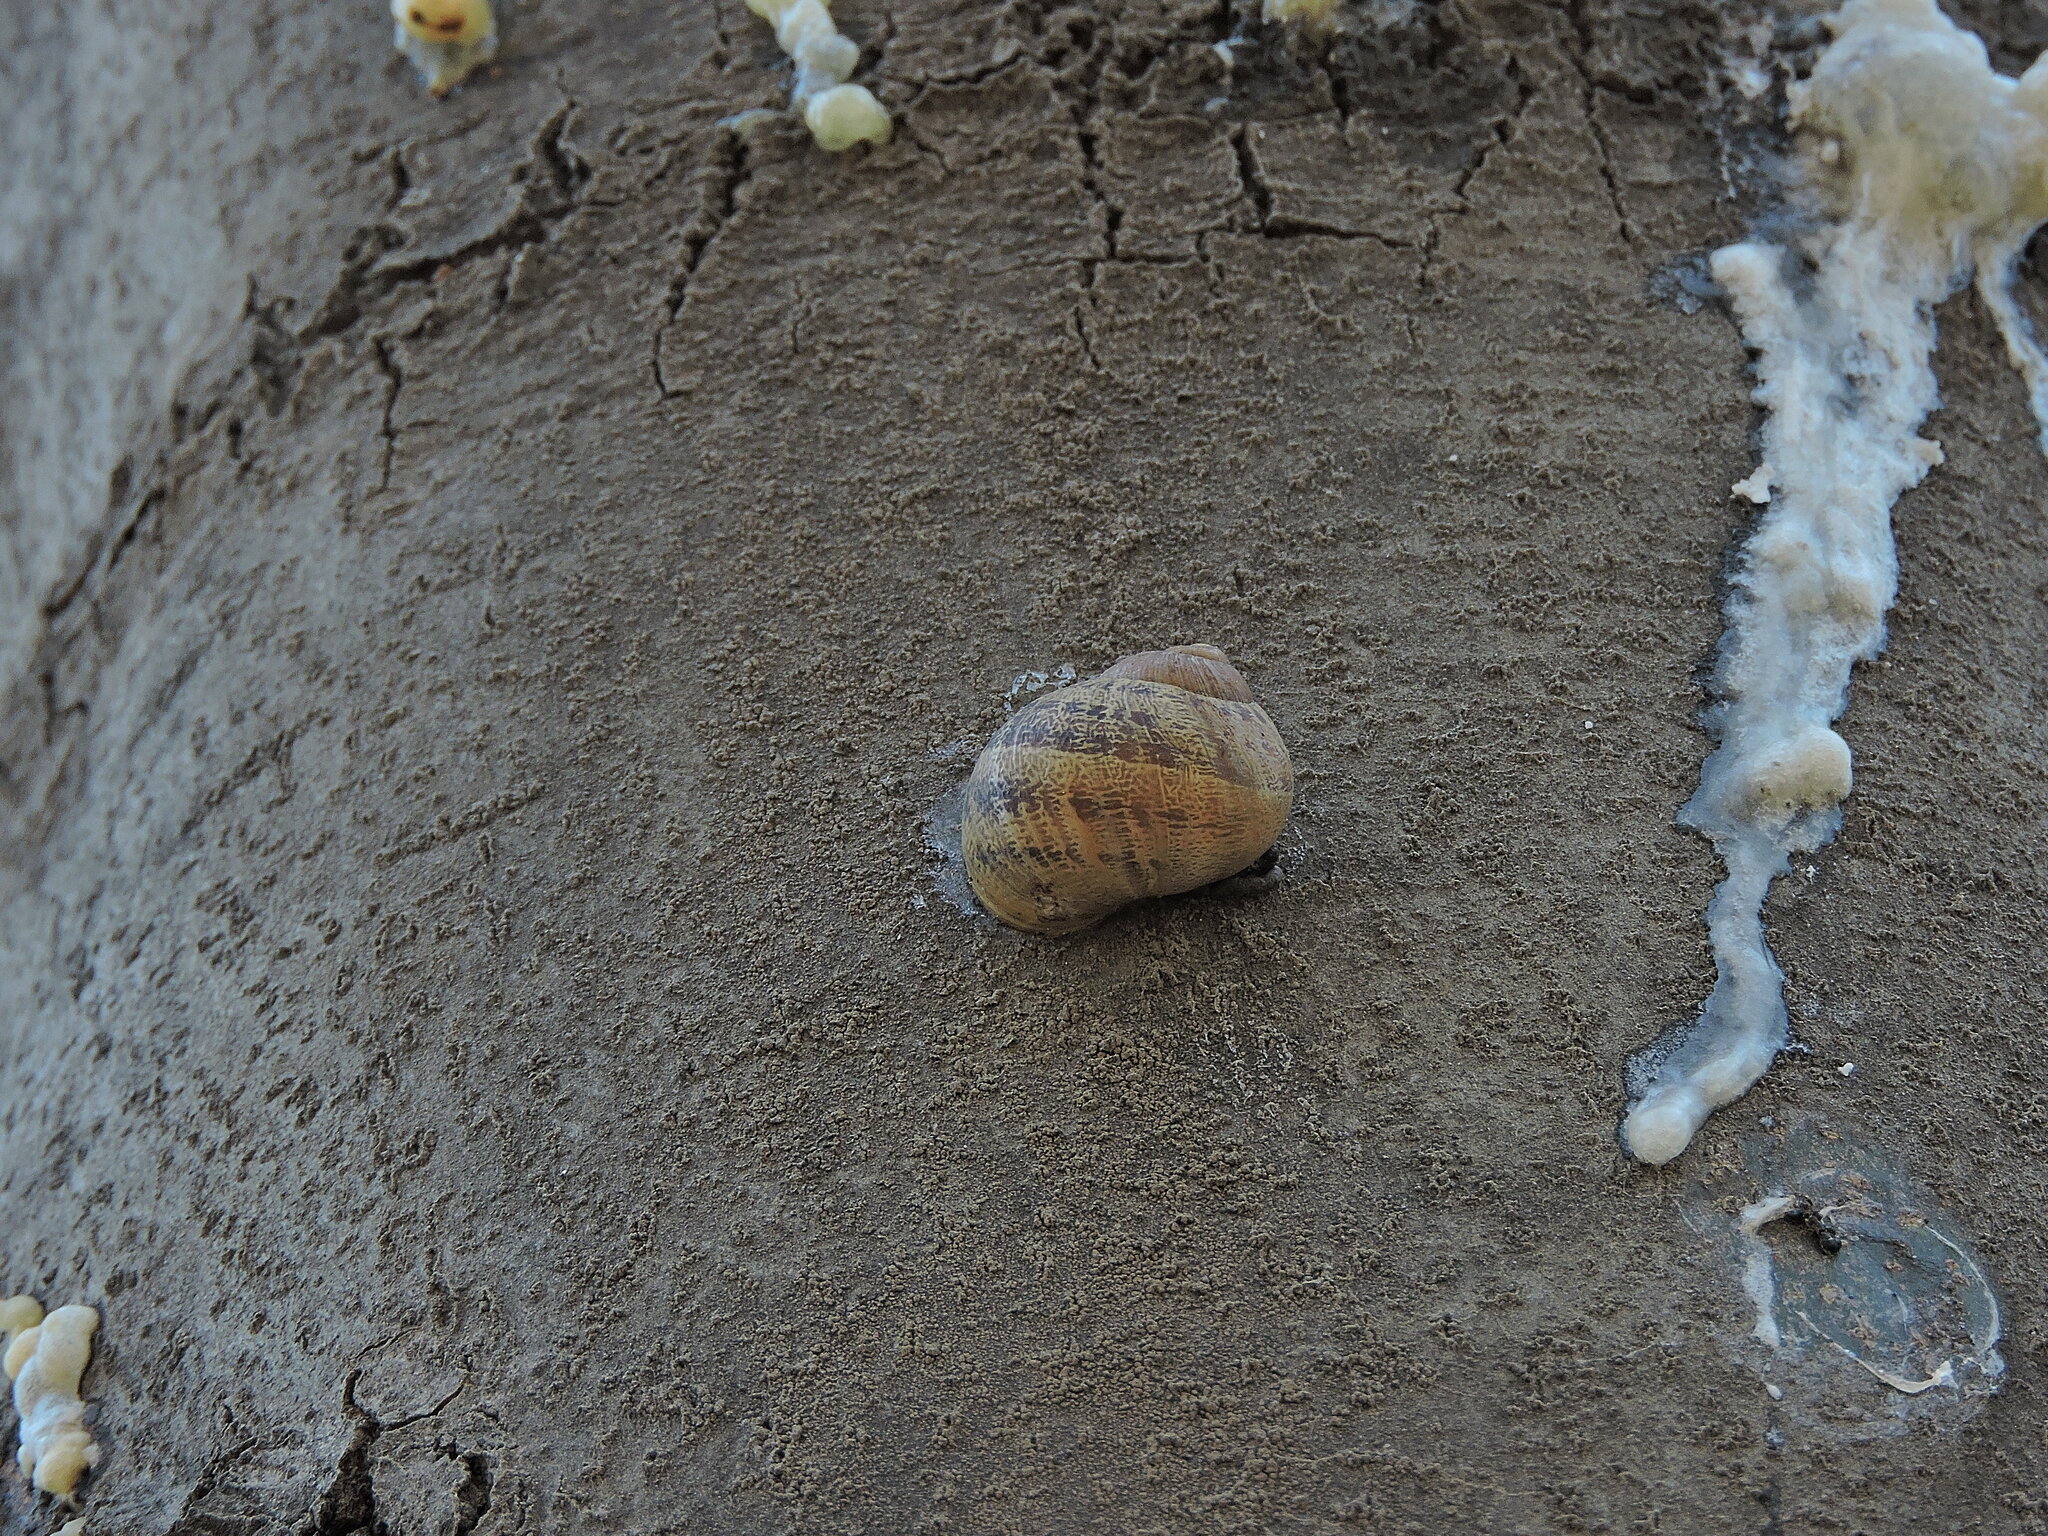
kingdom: Animalia
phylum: Mollusca
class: Gastropoda
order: Stylommatophora
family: Helicidae
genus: Cornu
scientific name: Cornu aspersum
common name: Brown garden snail
